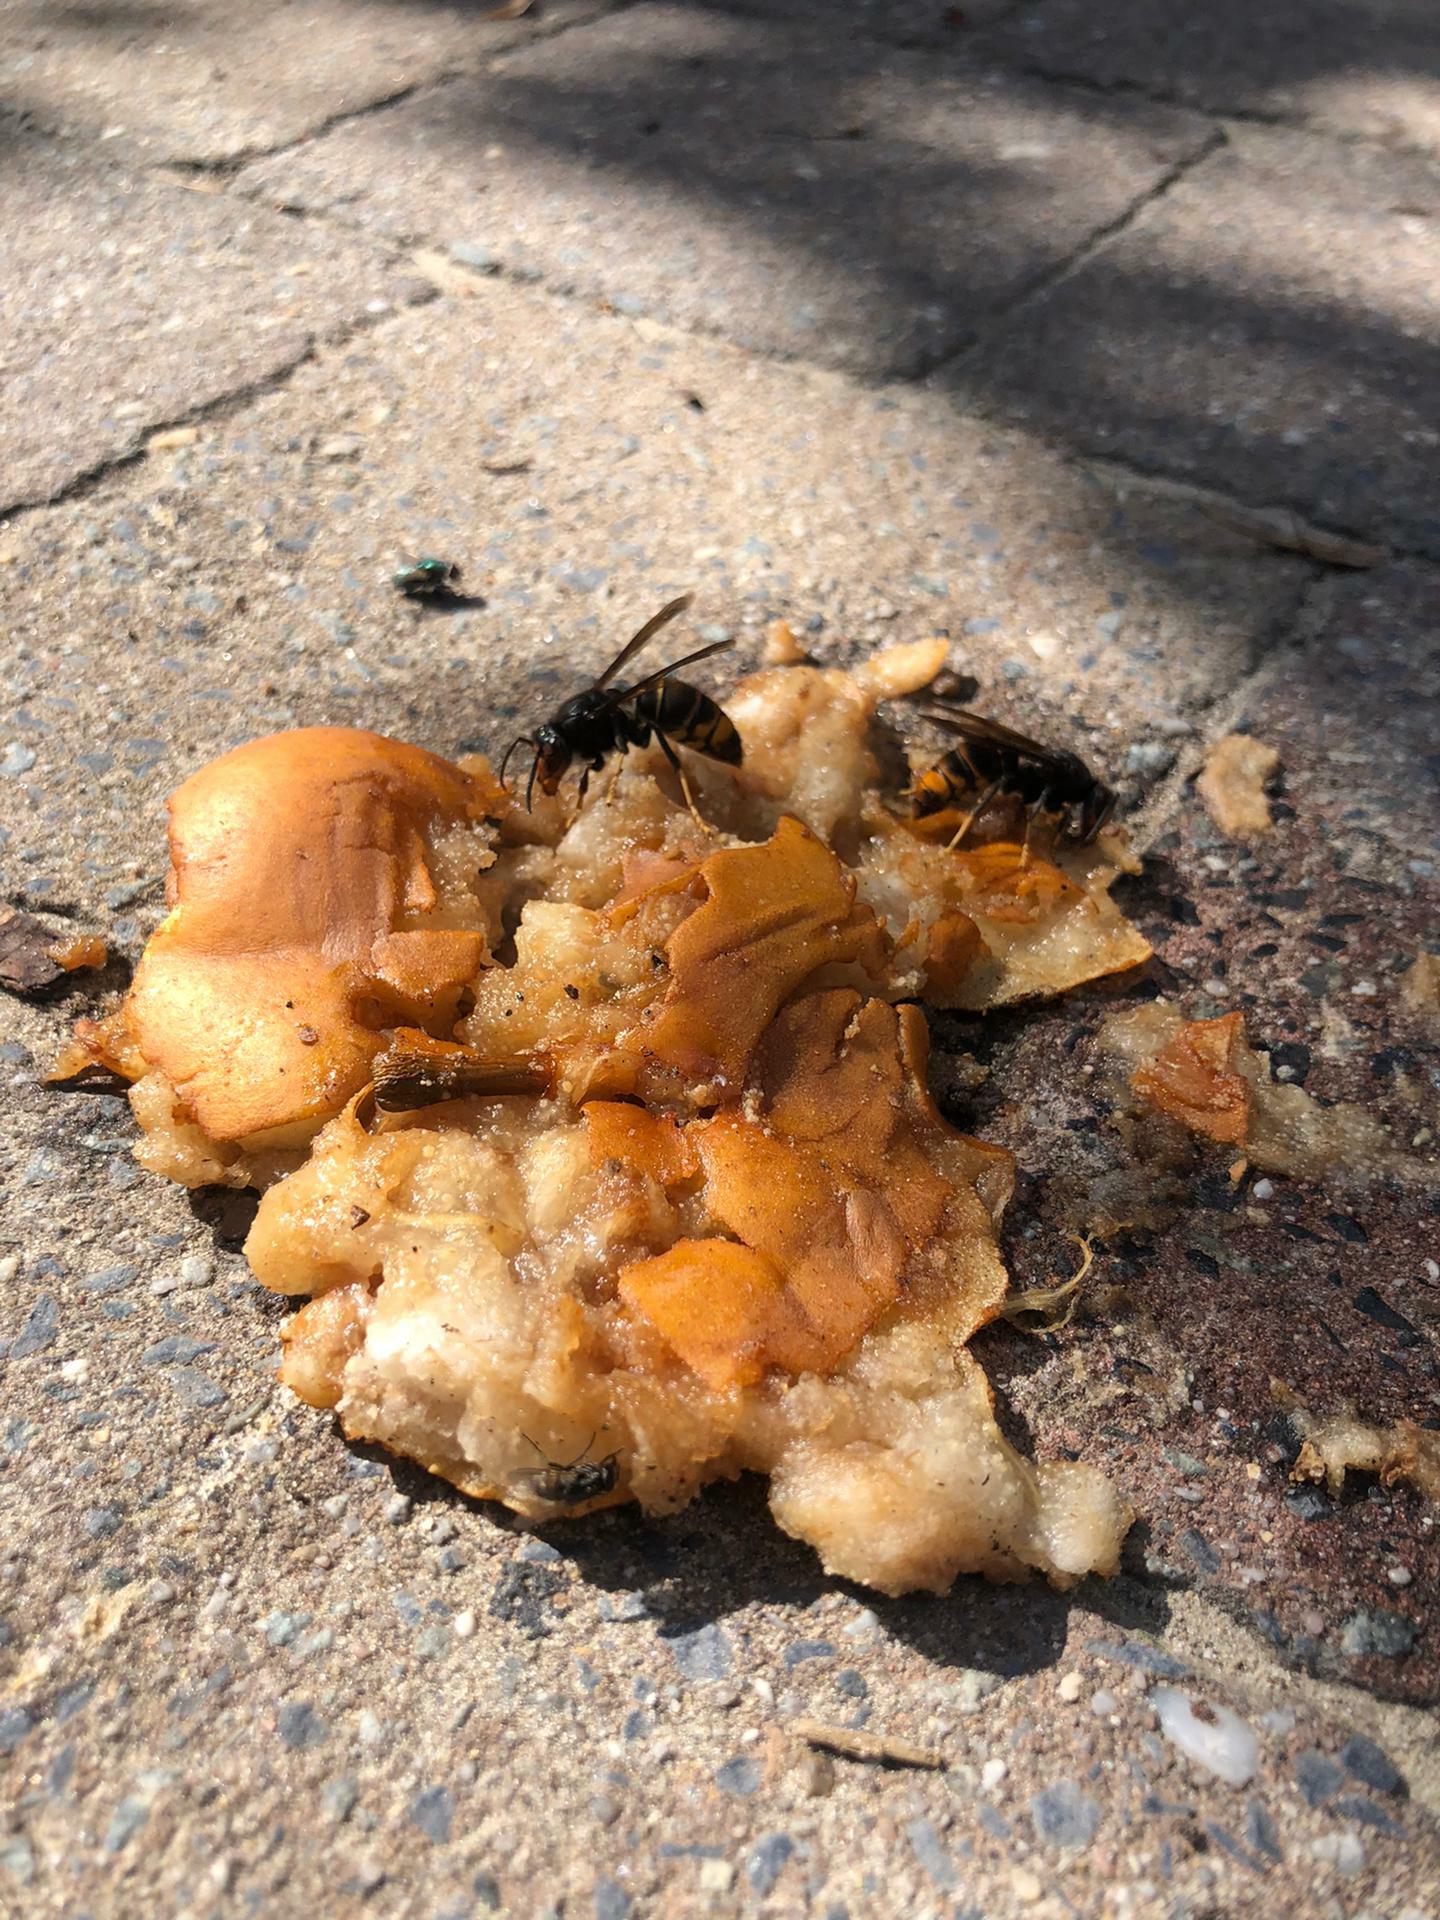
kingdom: Animalia
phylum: Arthropoda
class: Insecta
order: Hymenoptera
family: Vespidae
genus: Vespa
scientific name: Vespa velutina
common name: Asian hornet
